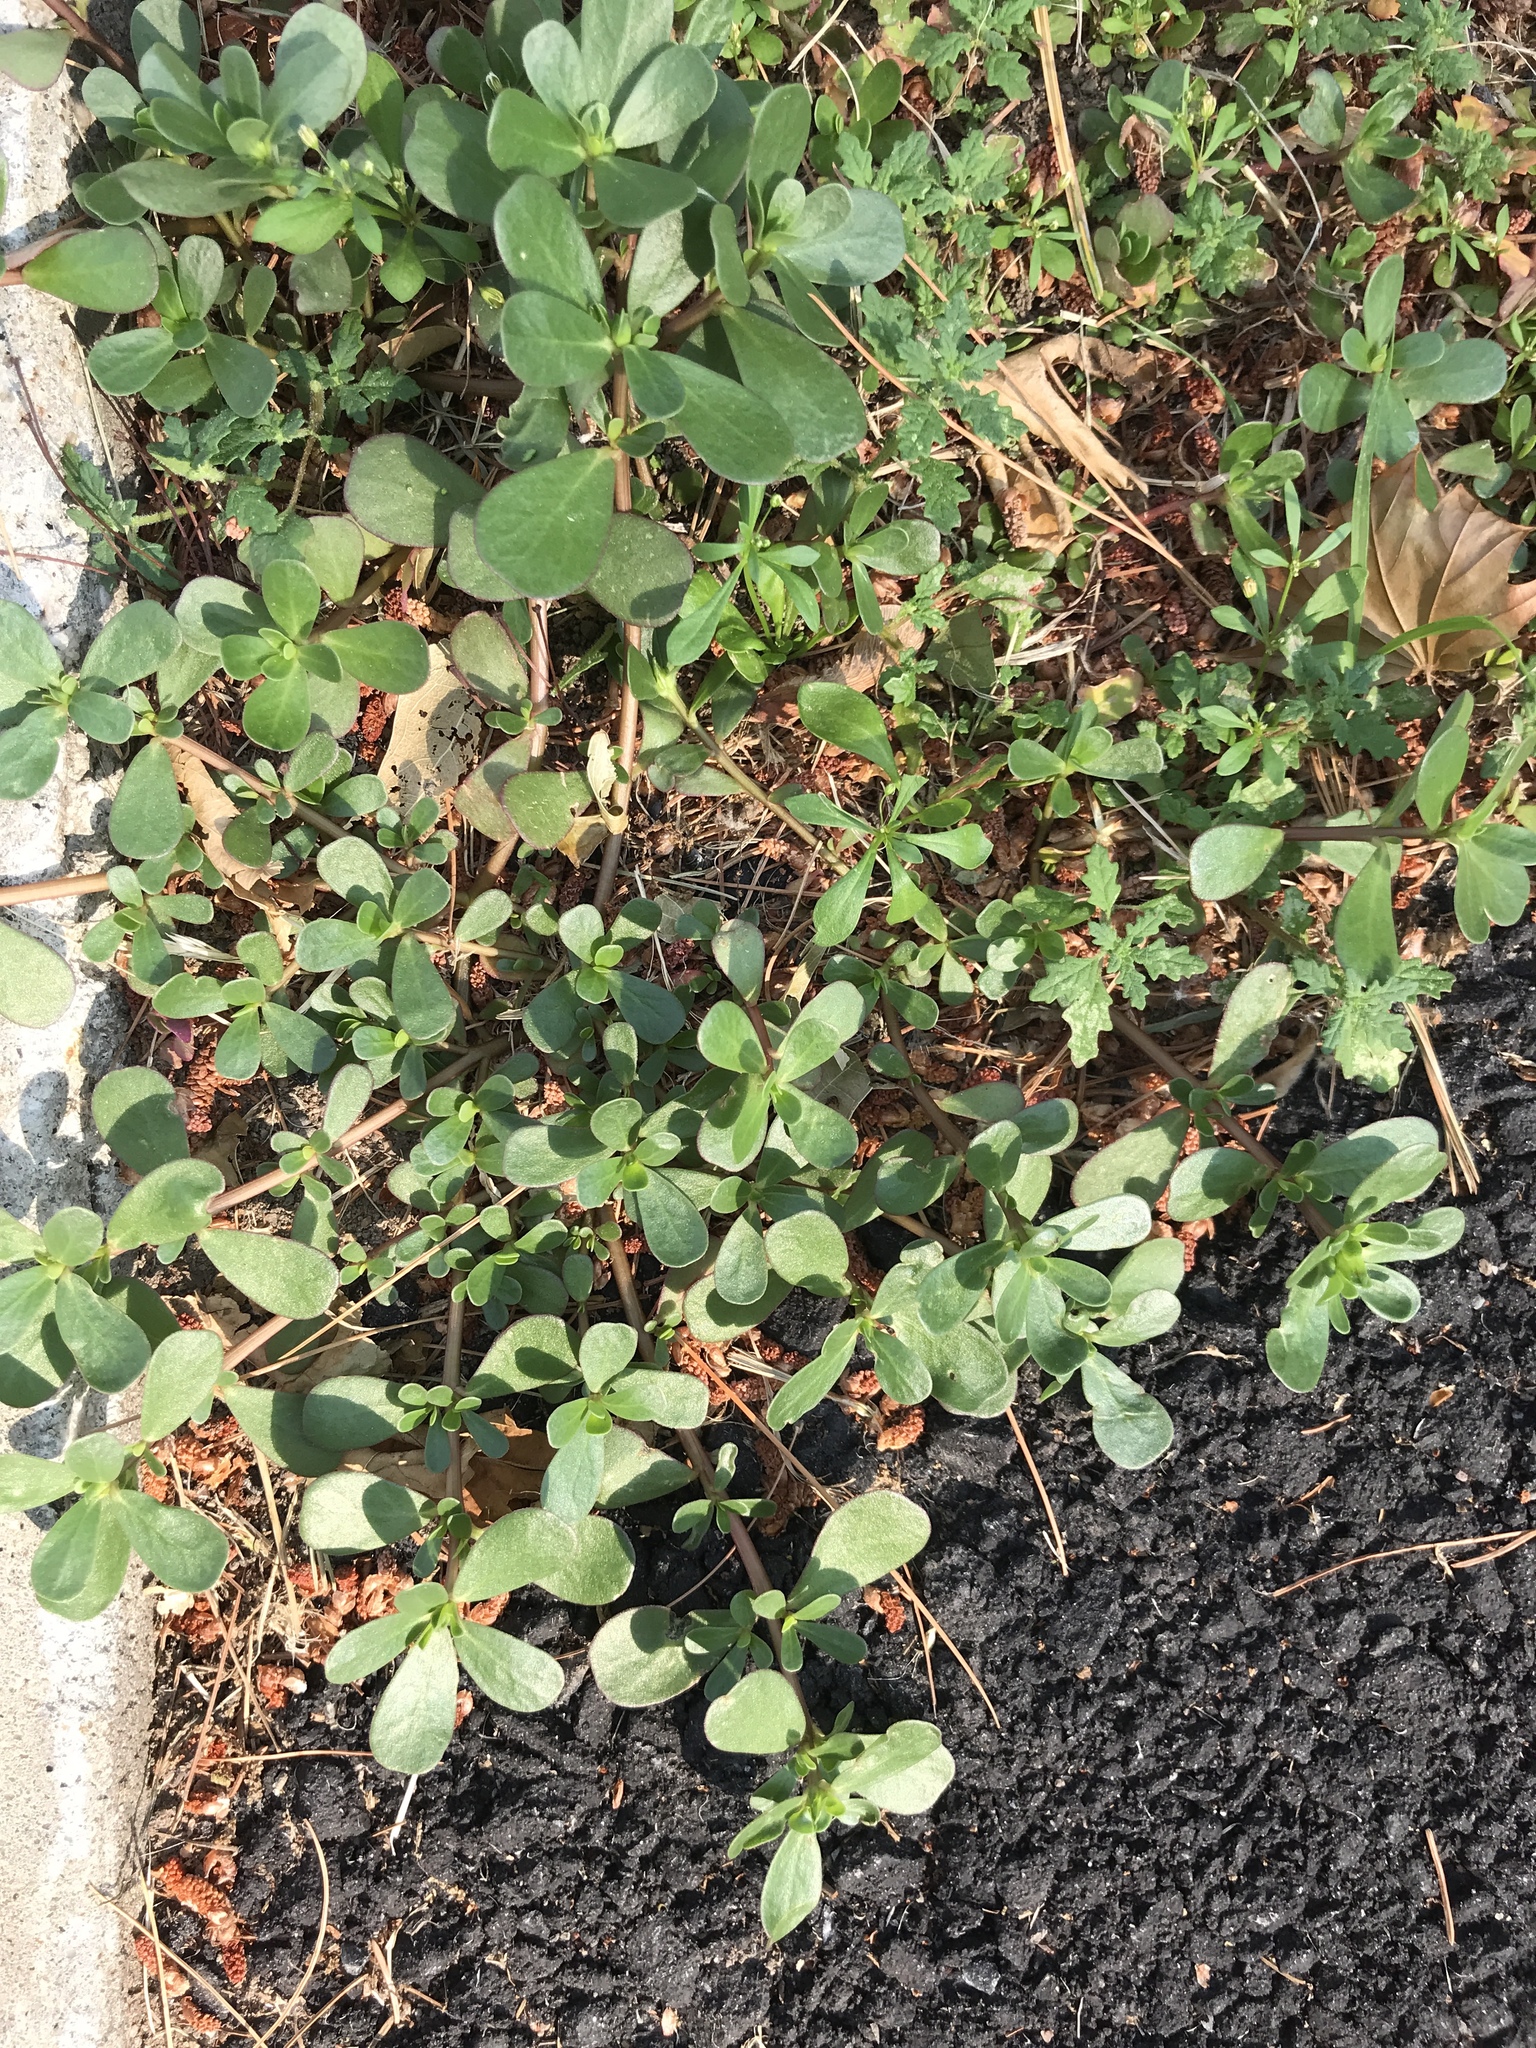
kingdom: Plantae
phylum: Tracheophyta
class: Magnoliopsida
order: Caryophyllales
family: Portulacaceae
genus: Portulaca
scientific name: Portulaca oleracea
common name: Common purslane
